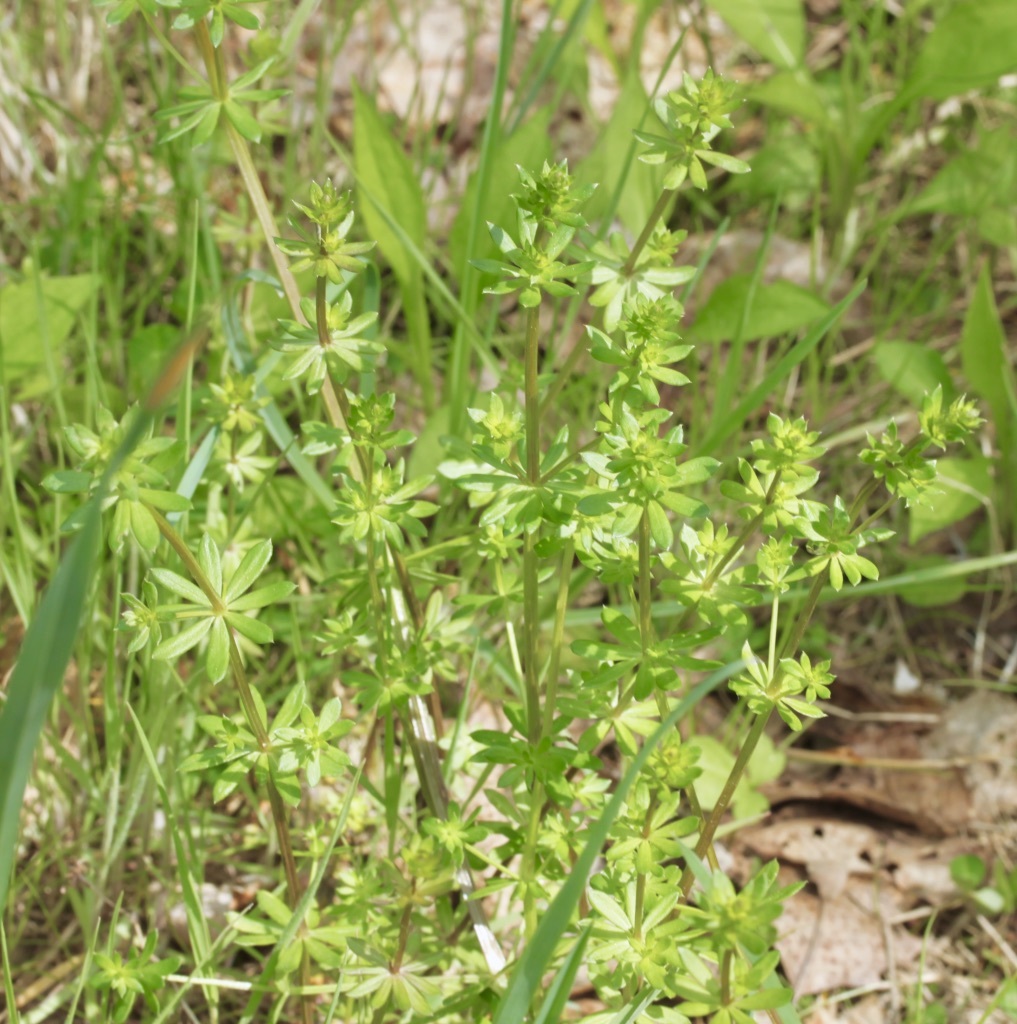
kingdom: Plantae
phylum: Tracheophyta
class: Magnoliopsida
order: Gentianales
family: Rubiaceae
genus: Galium
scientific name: Galium mollugo
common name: Hedge bedstraw
